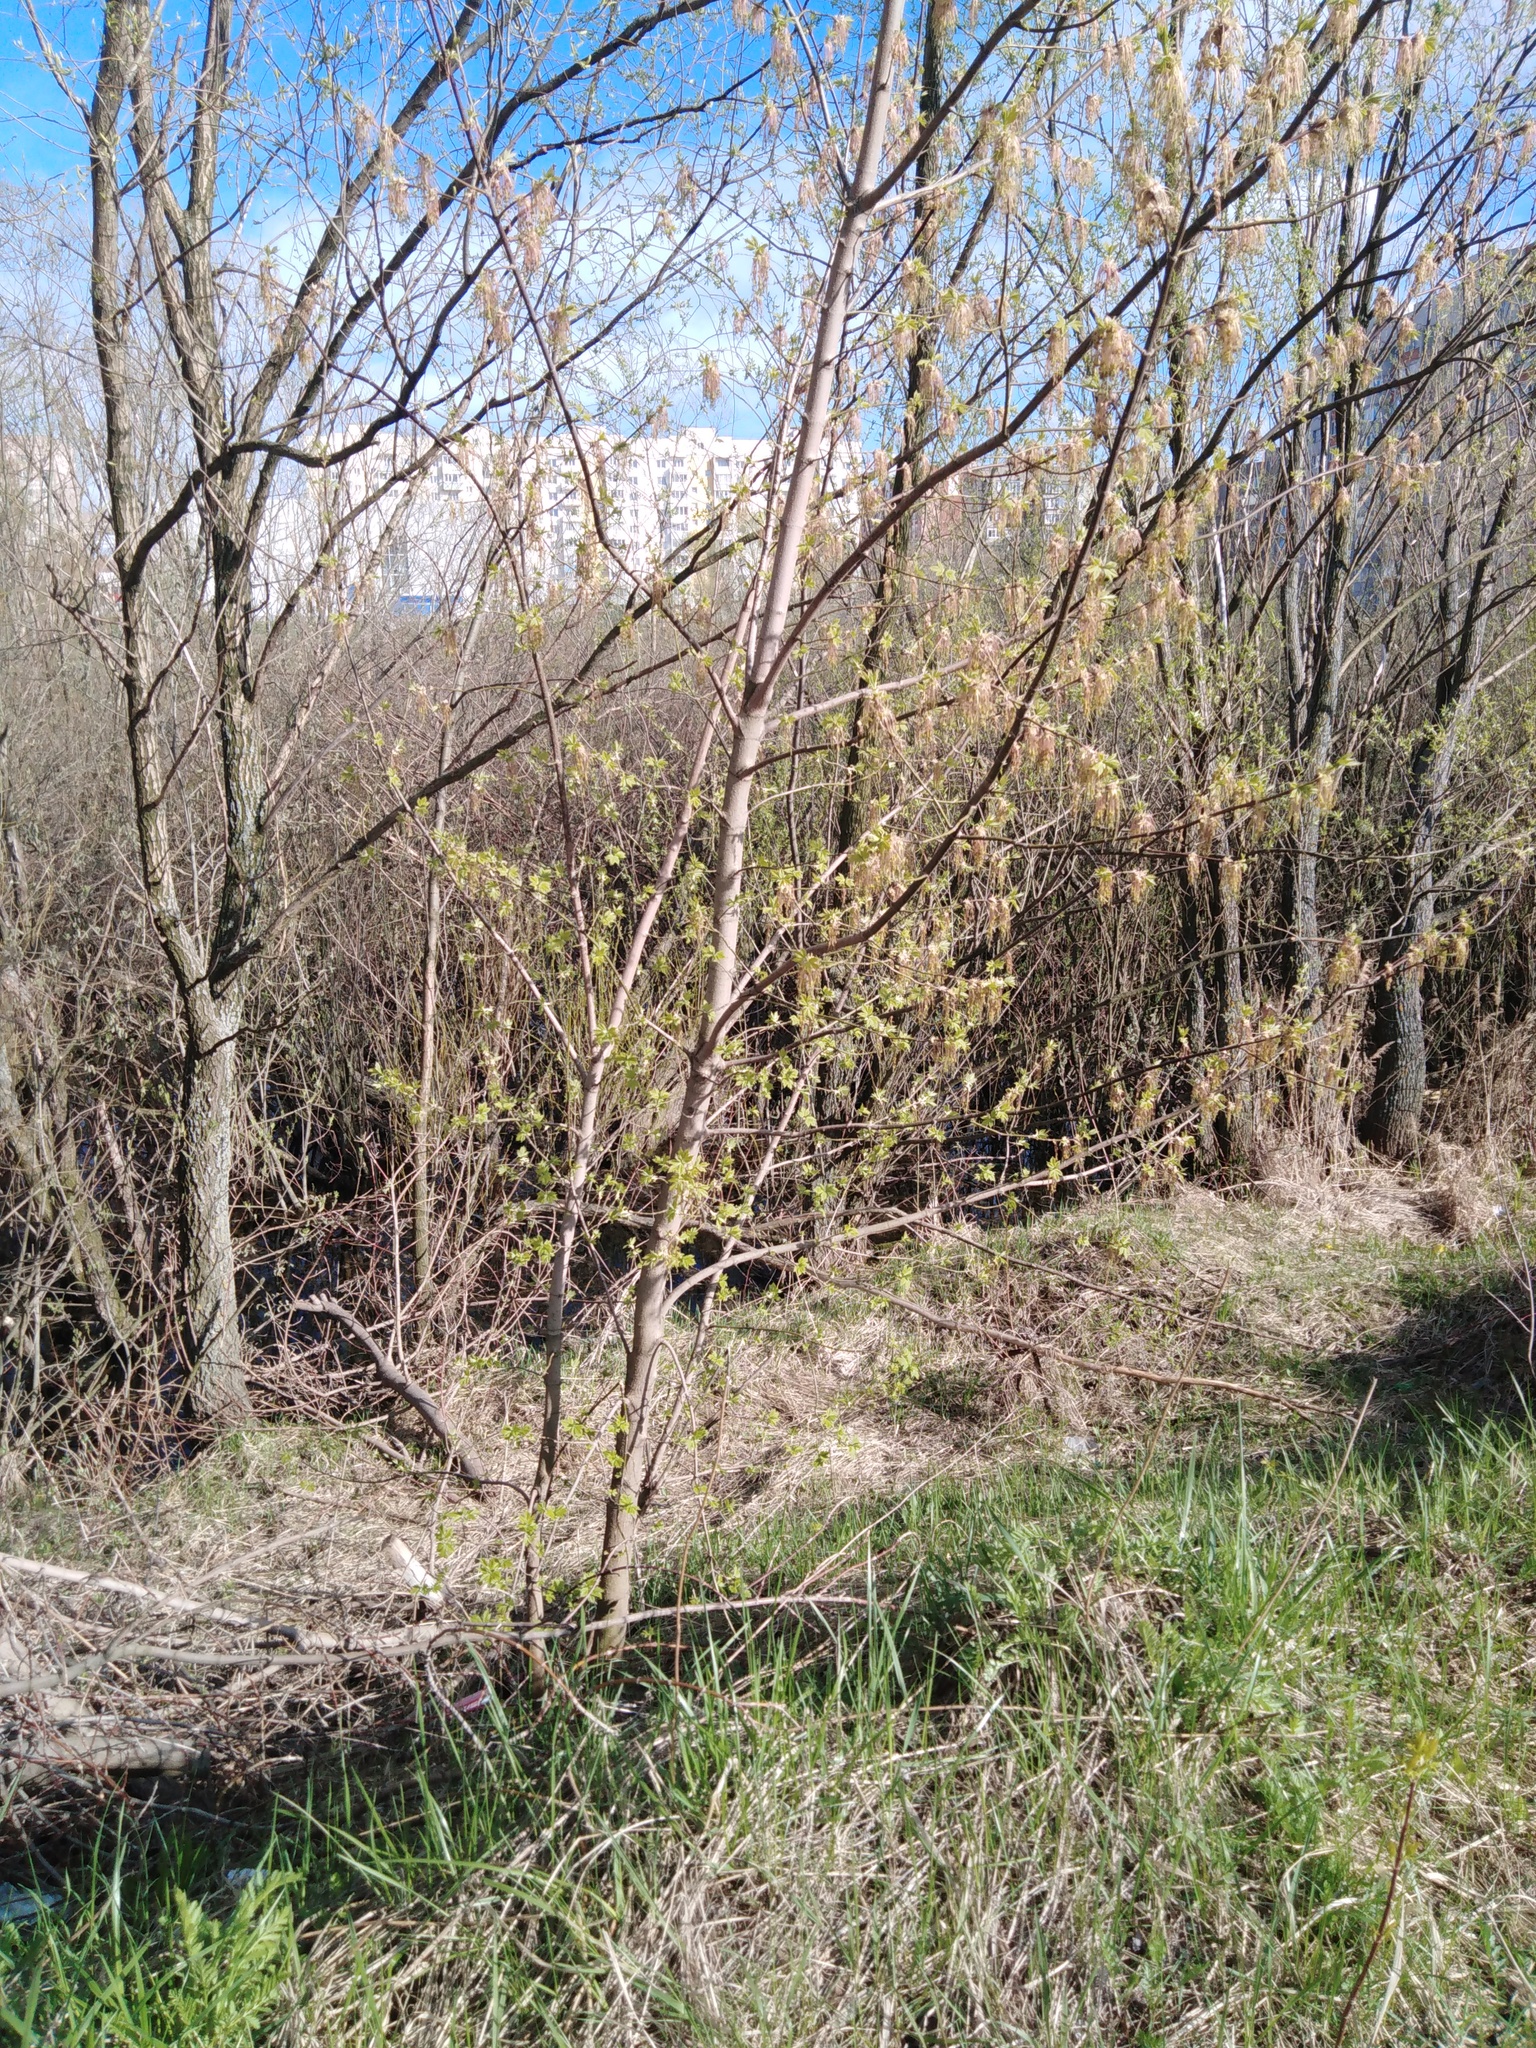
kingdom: Plantae
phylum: Tracheophyta
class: Magnoliopsida
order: Sapindales
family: Sapindaceae
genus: Acer
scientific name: Acer negundo
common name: Ashleaf maple
